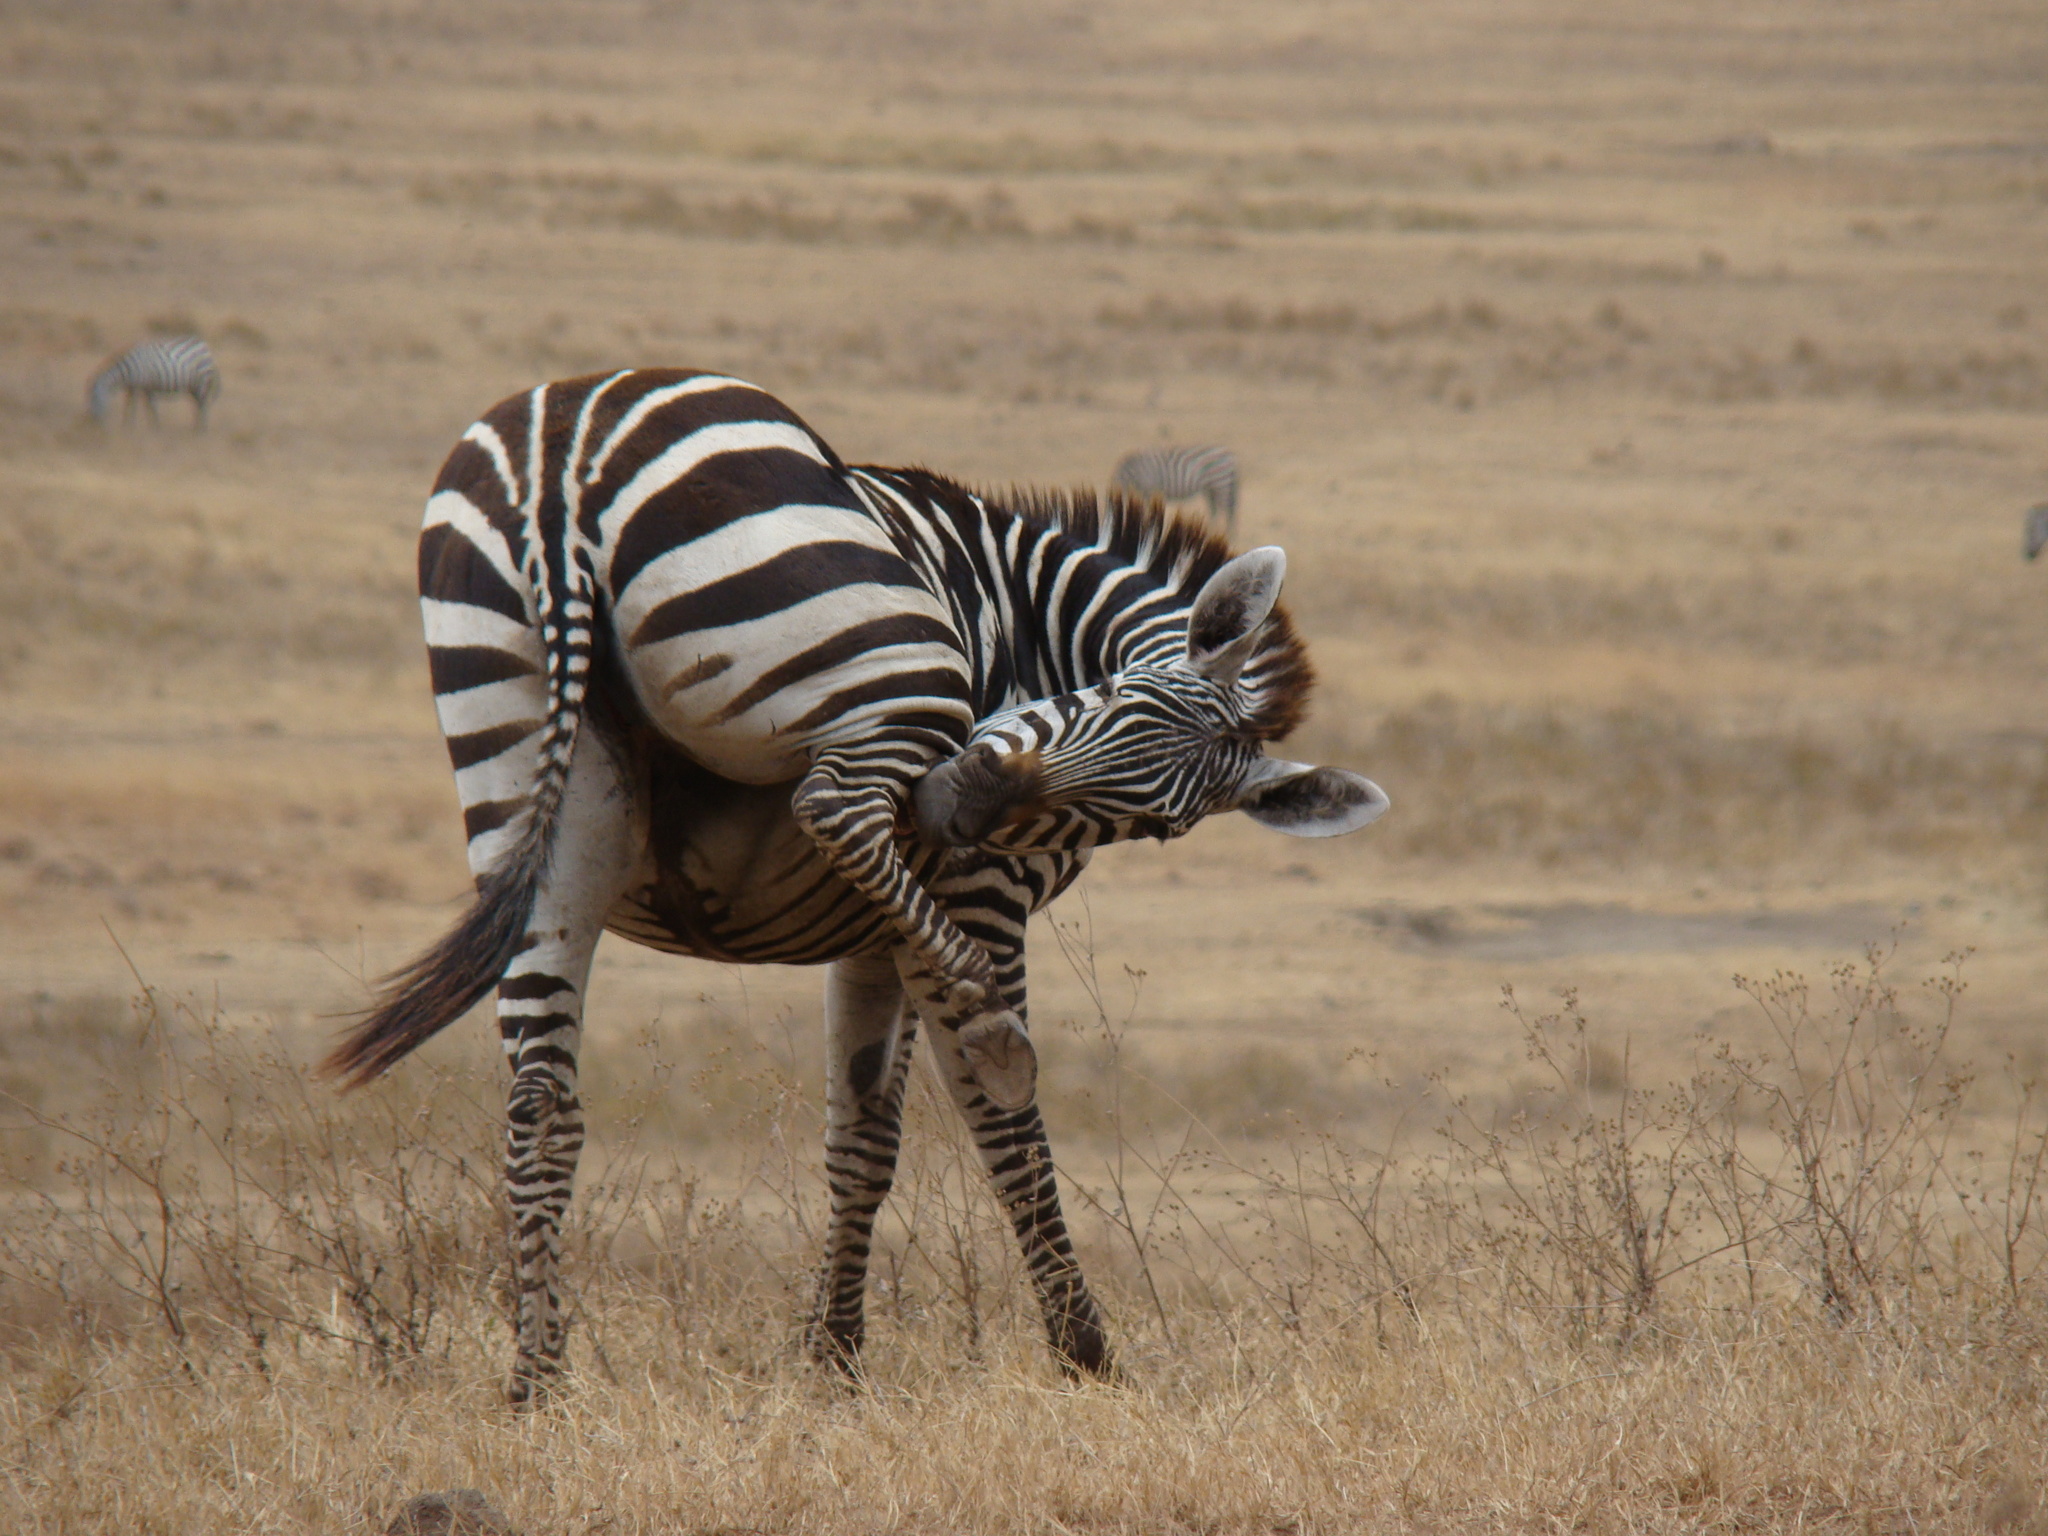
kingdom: Animalia
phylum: Chordata
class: Mammalia
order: Perissodactyla
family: Equidae
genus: Equus
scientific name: Equus quagga
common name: Plains zebra
